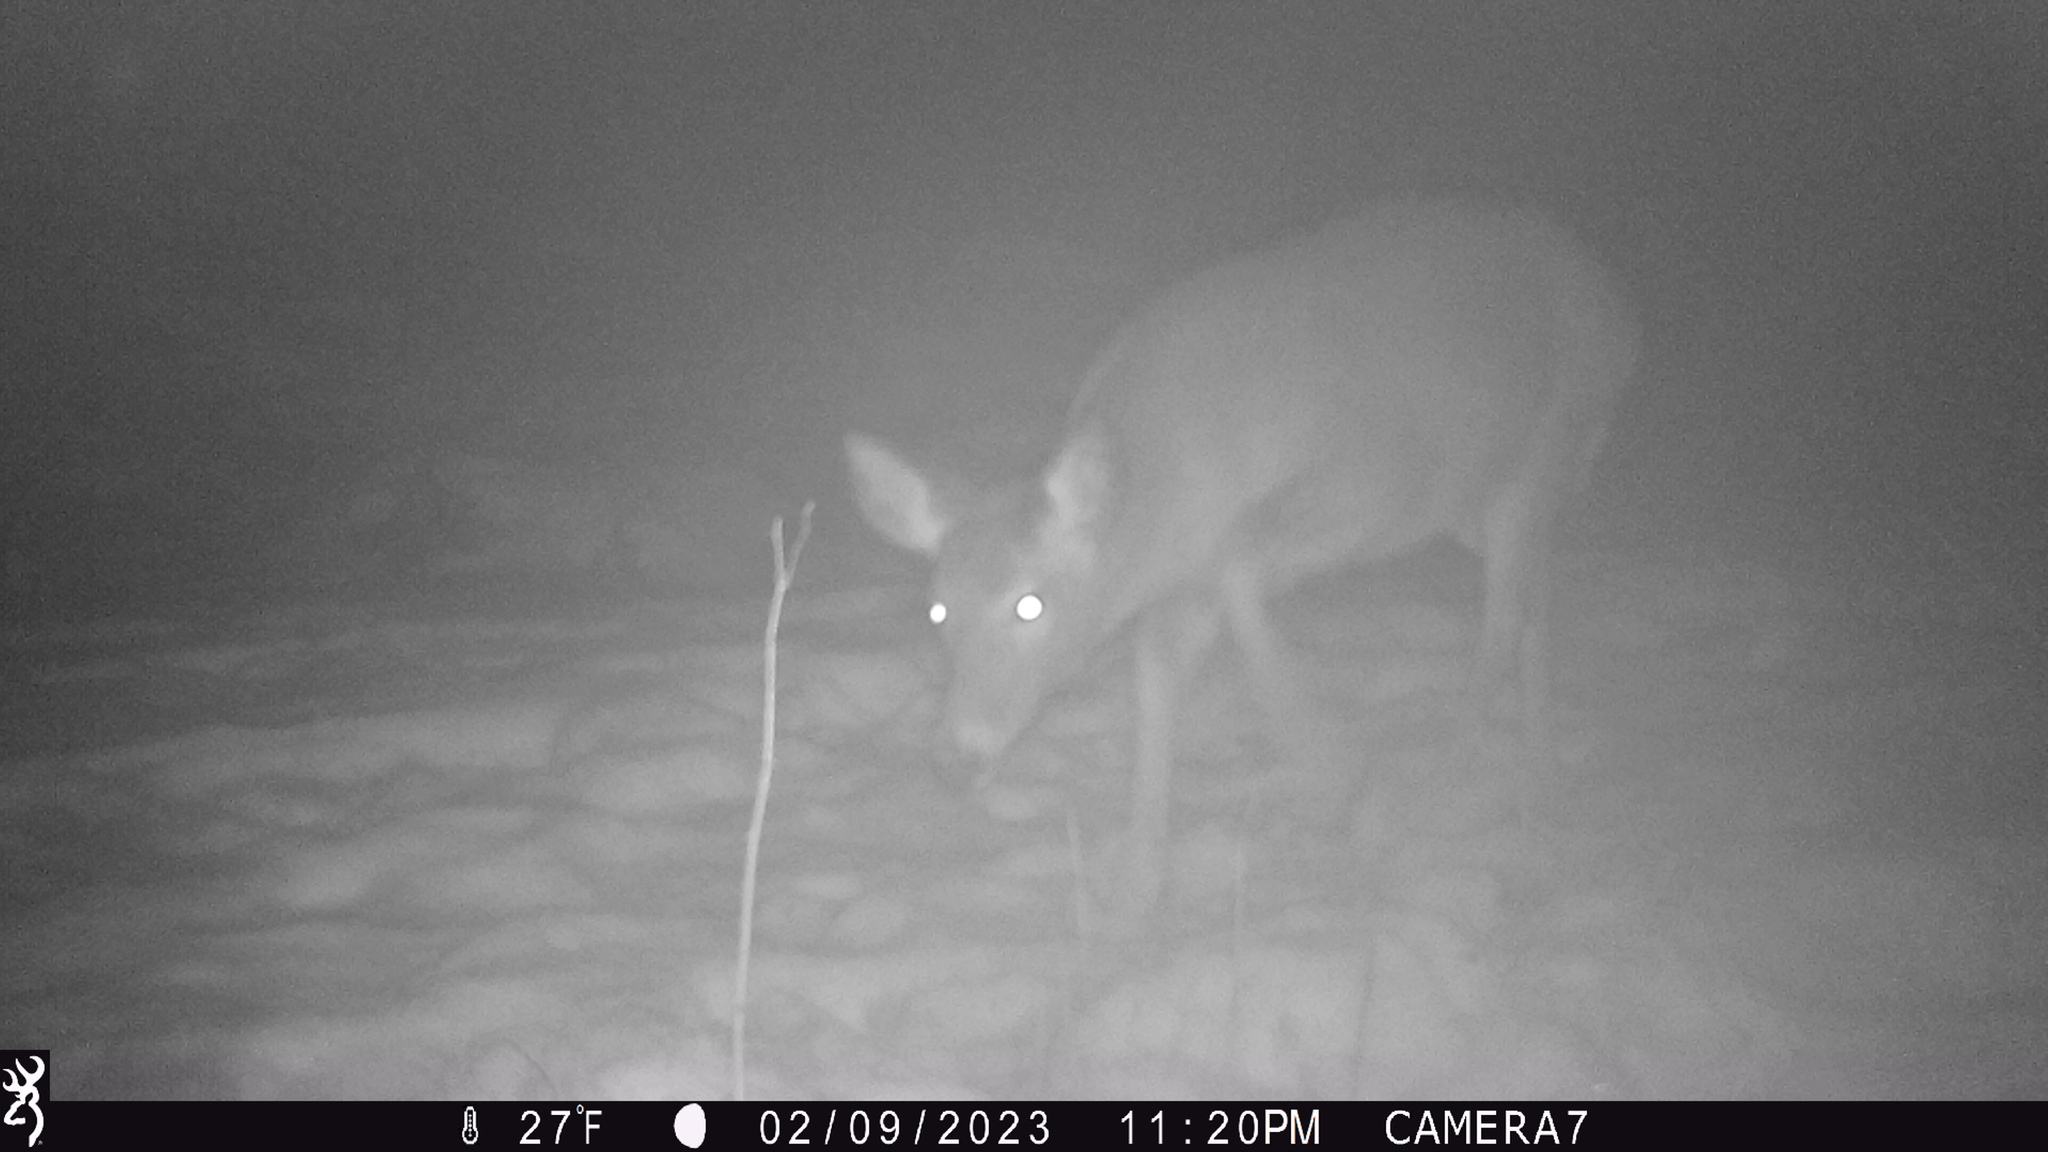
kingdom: Animalia
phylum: Chordata
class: Mammalia
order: Artiodactyla
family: Cervidae
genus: Odocoileus
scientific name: Odocoileus virginianus
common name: White-tailed deer
